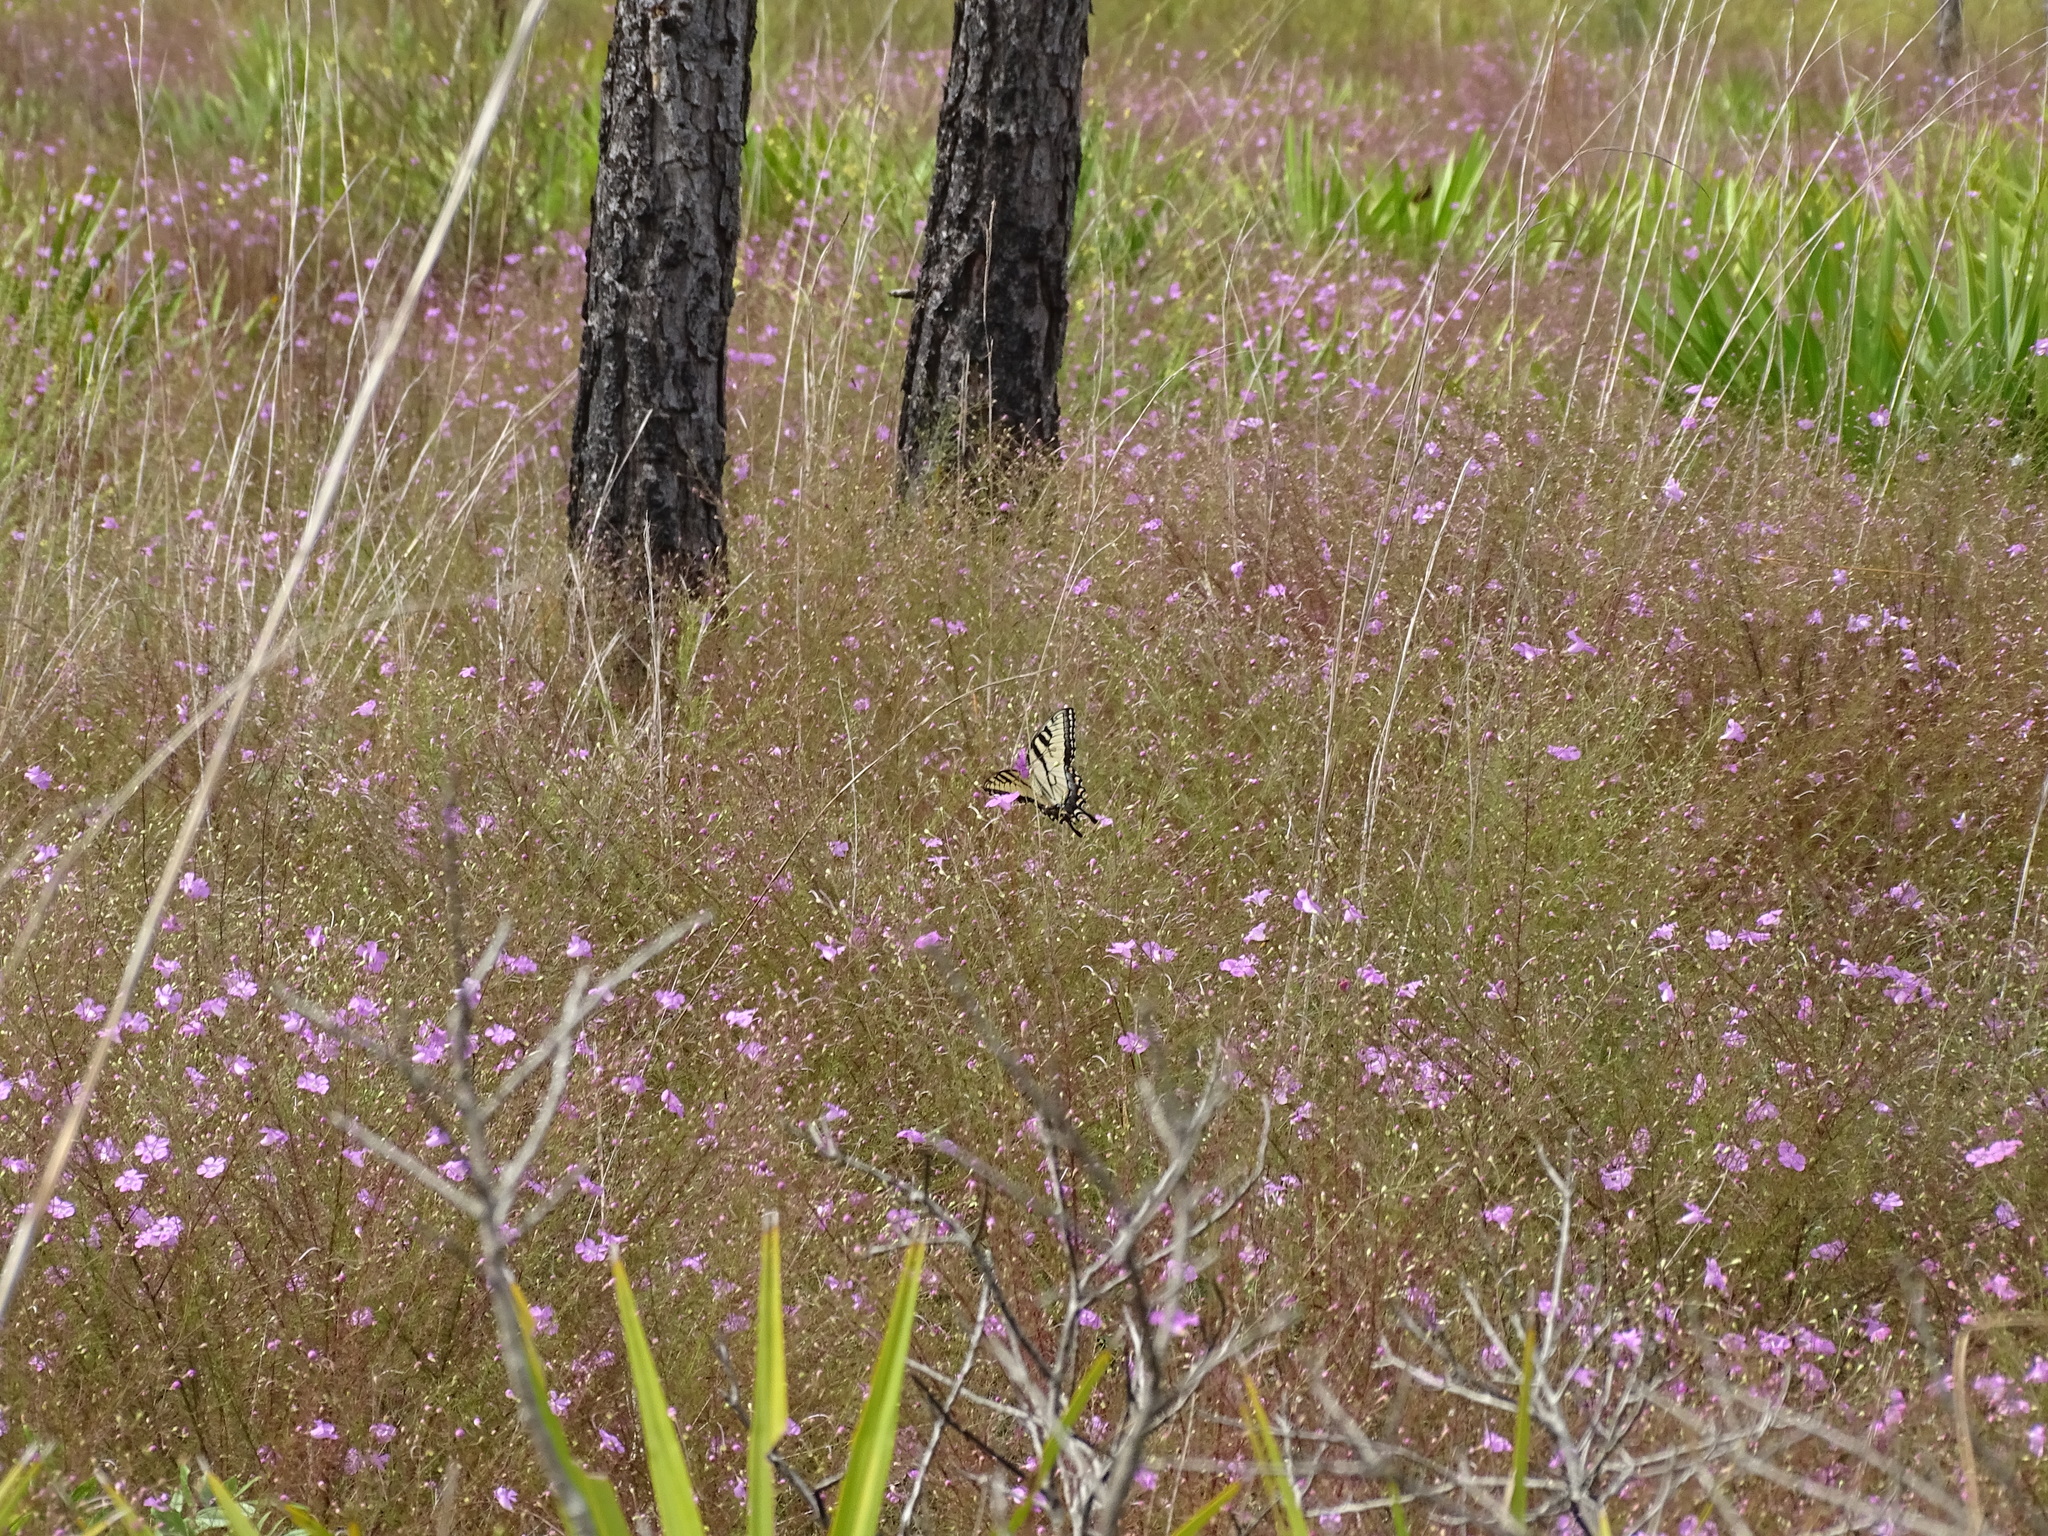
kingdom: Animalia
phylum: Arthropoda
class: Insecta
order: Lepidoptera
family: Papilionidae
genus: Papilio
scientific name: Papilio glaucus
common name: Tiger swallowtail
